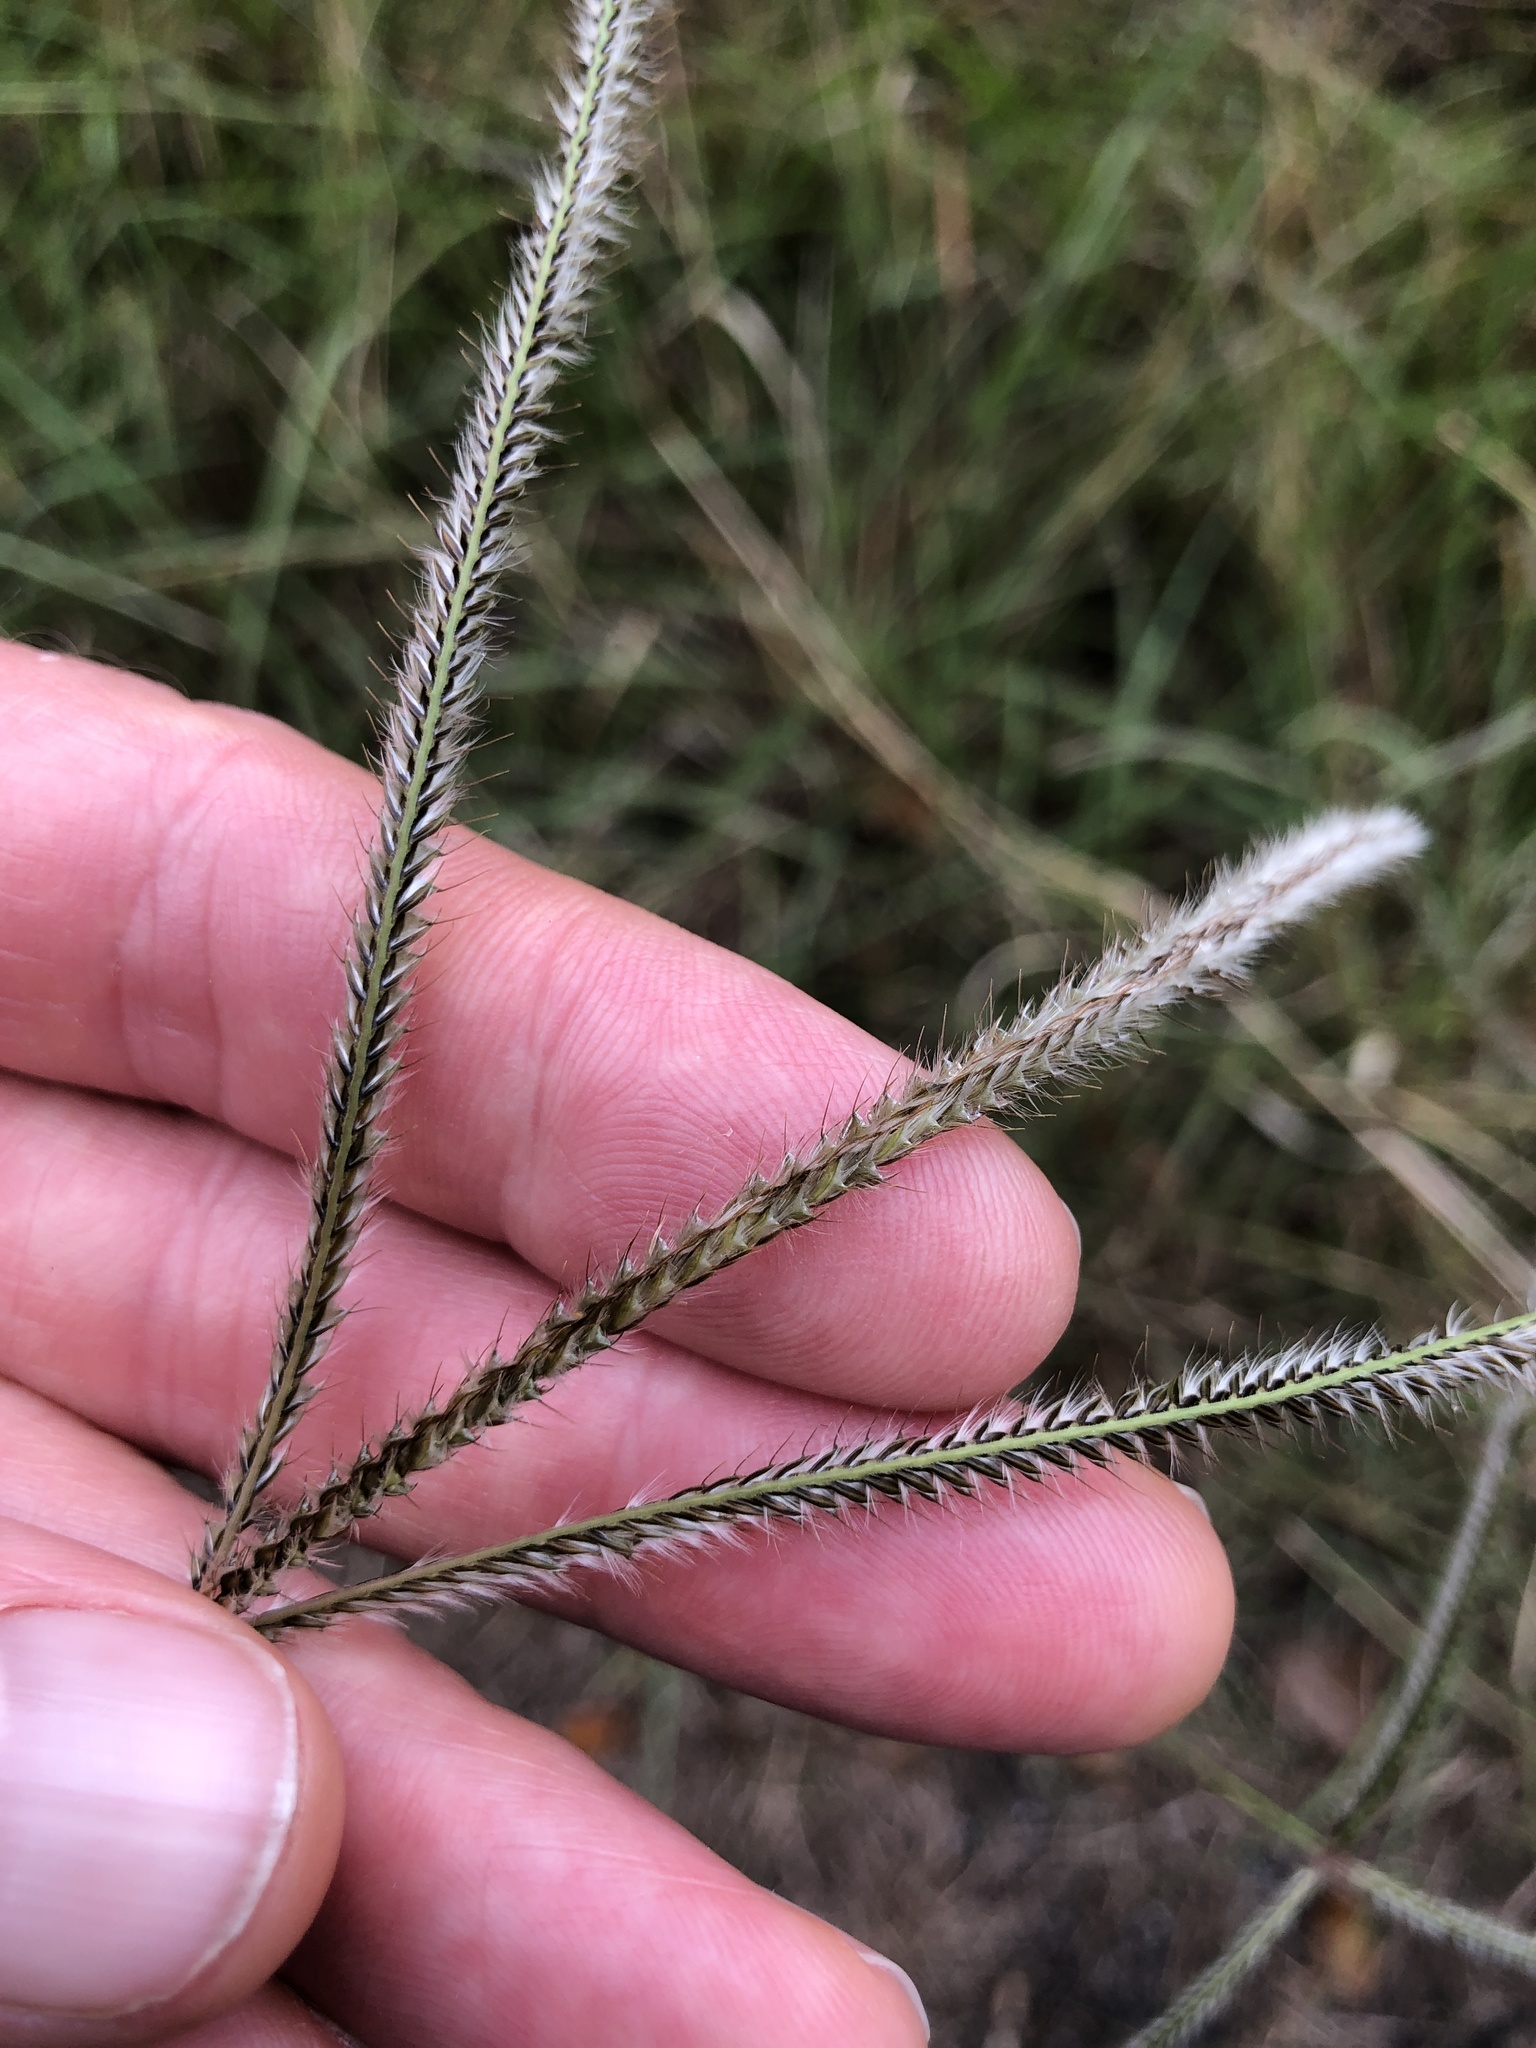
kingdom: Plantae
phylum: Tracheophyta
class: Liliopsida
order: Poales
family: Poaceae
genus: Stapfochloa
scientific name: Stapfochloa canterae
